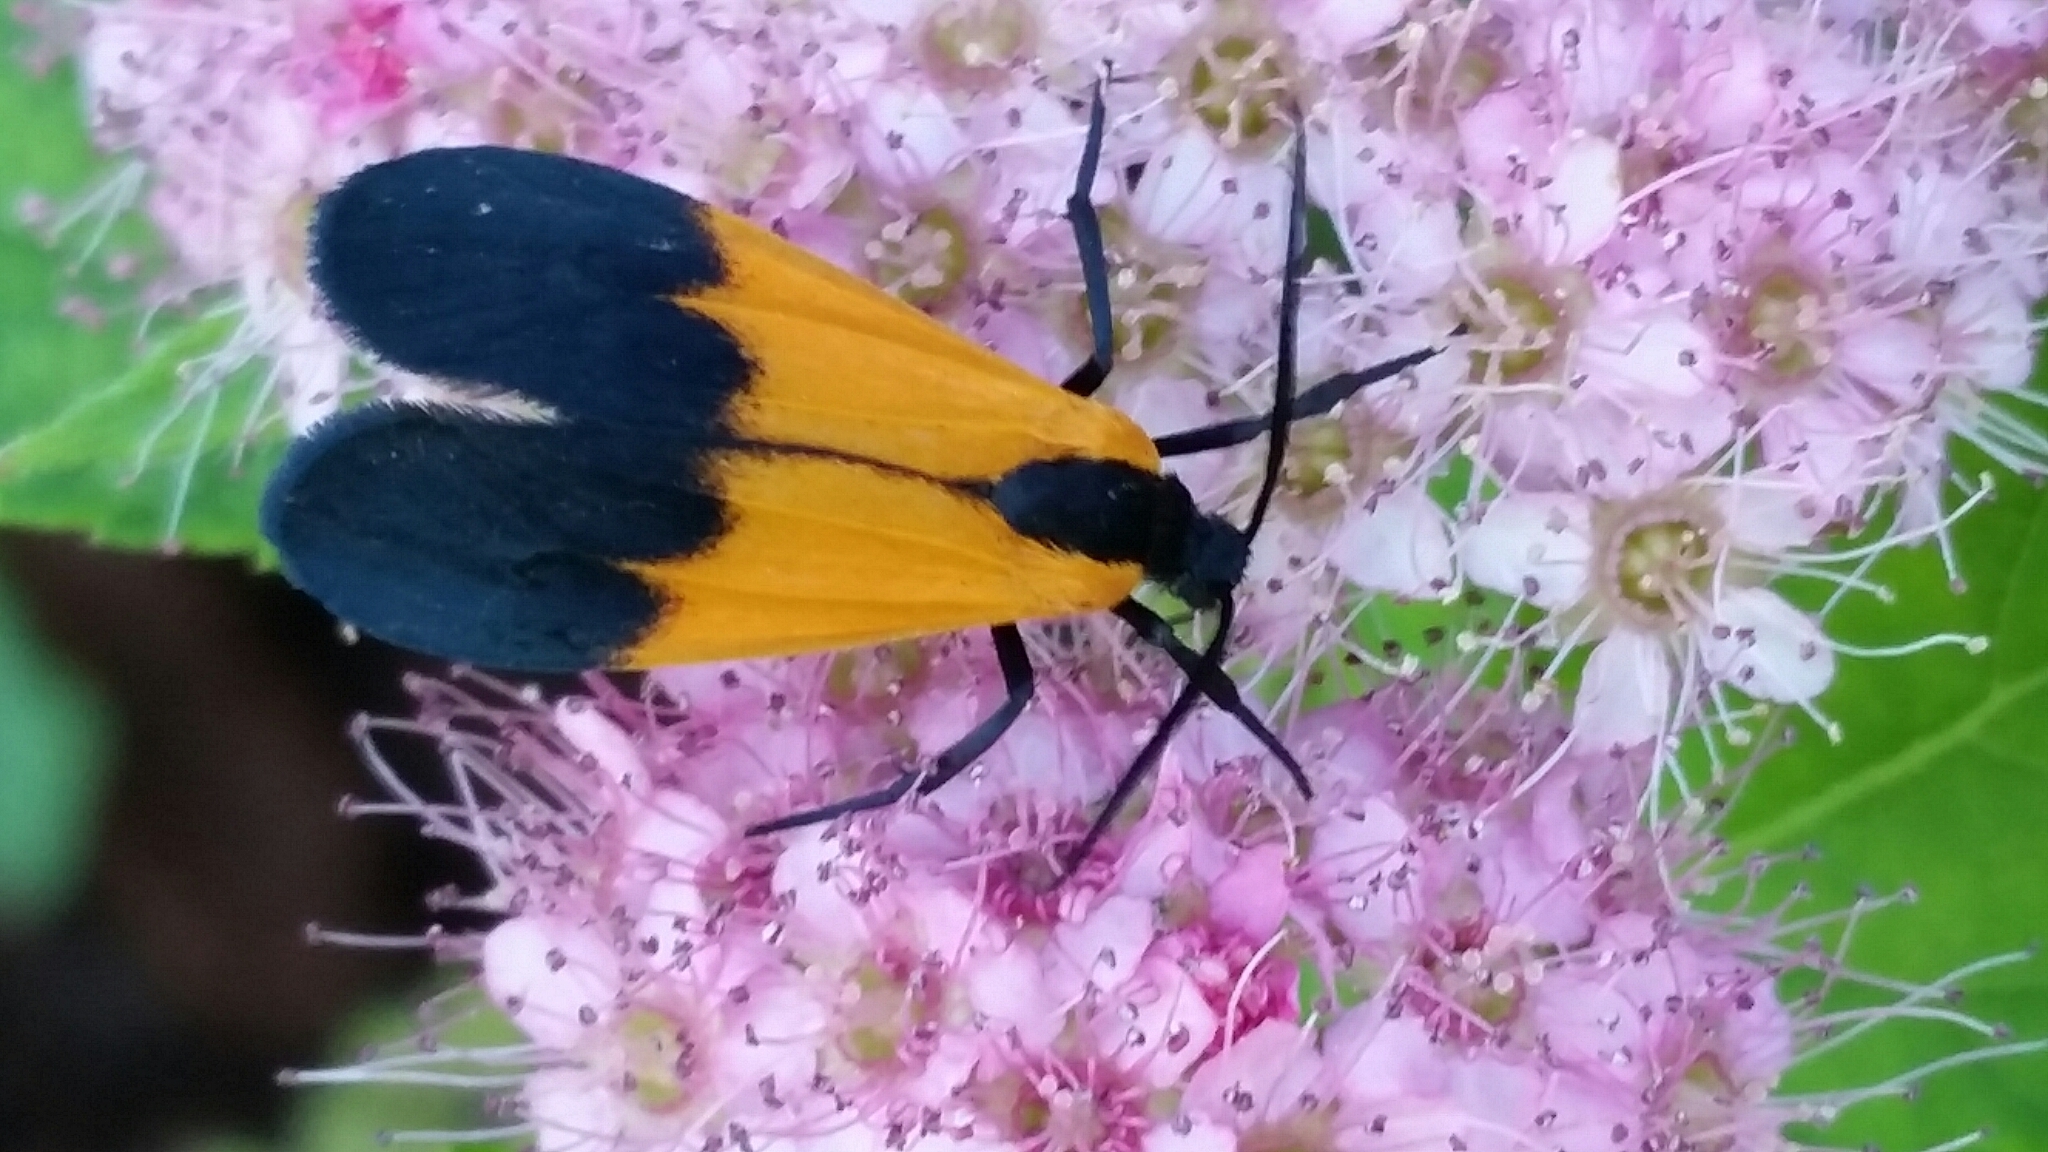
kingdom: Animalia
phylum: Arthropoda
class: Insecta
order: Lepidoptera
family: Erebidae
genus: Lycomorpha
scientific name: Lycomorpha pholus
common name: Black-and-yellow lichen moth
